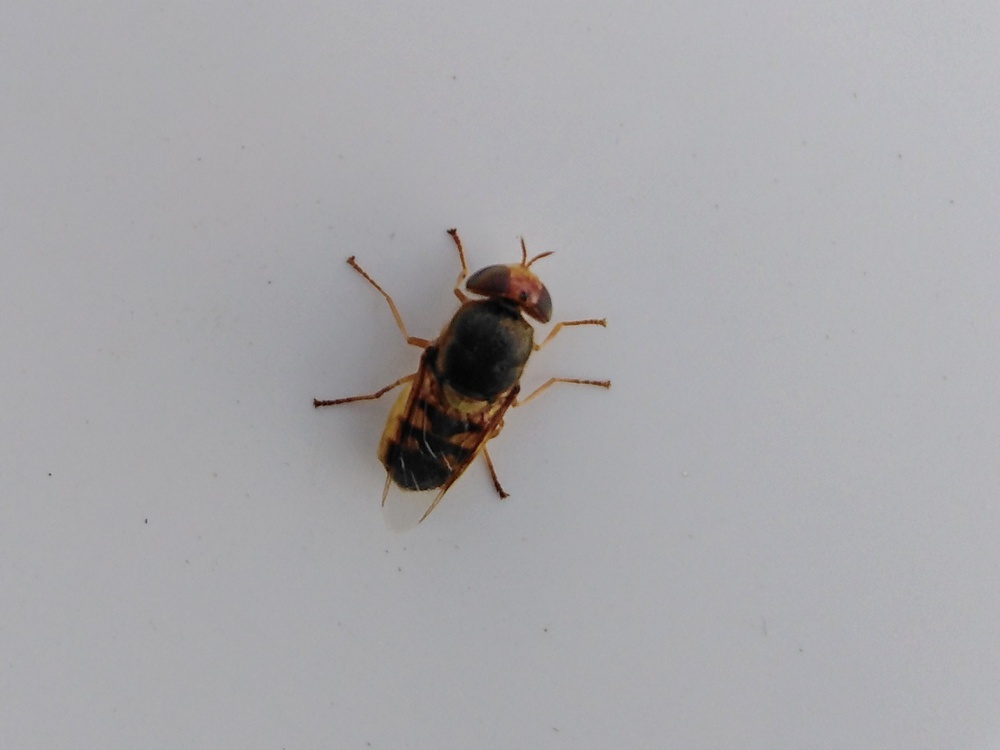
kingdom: Animalia
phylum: Arthropoda
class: Insecta
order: Diptera
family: Stratiomyidae
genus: Odontomyia
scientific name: Odontomyia viridana
